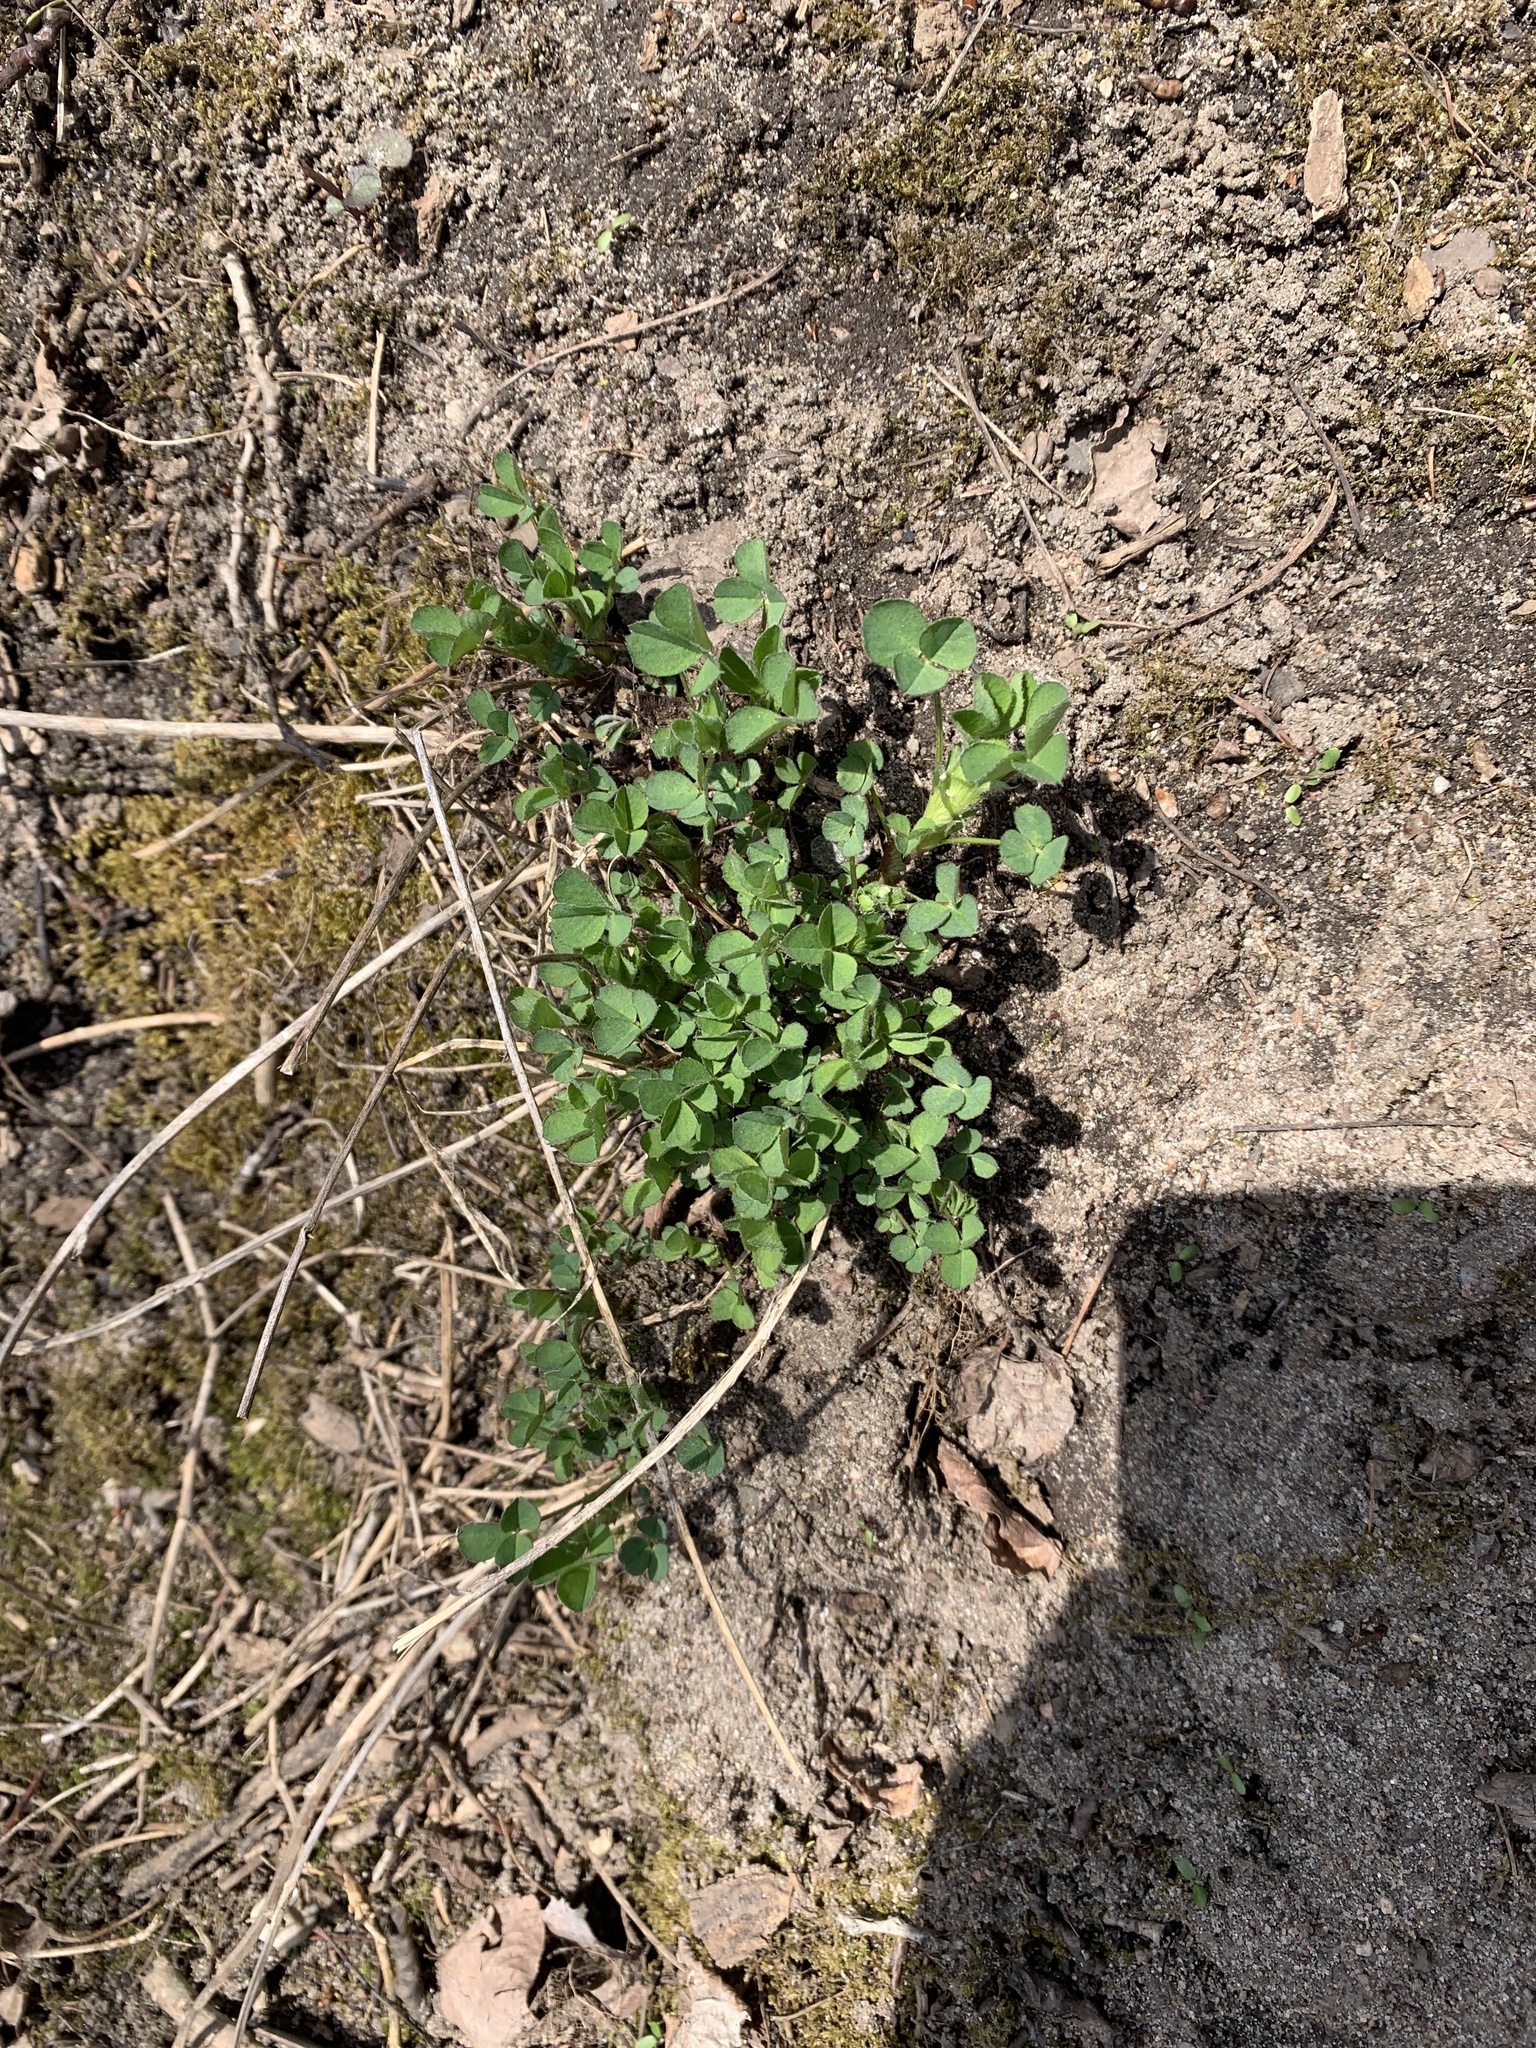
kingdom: Plantae
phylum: Tracheophyta
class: Magnoliopsida
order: Fabales
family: Fabaceae
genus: Medicago
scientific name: Medicago lupulina
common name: Black medick
